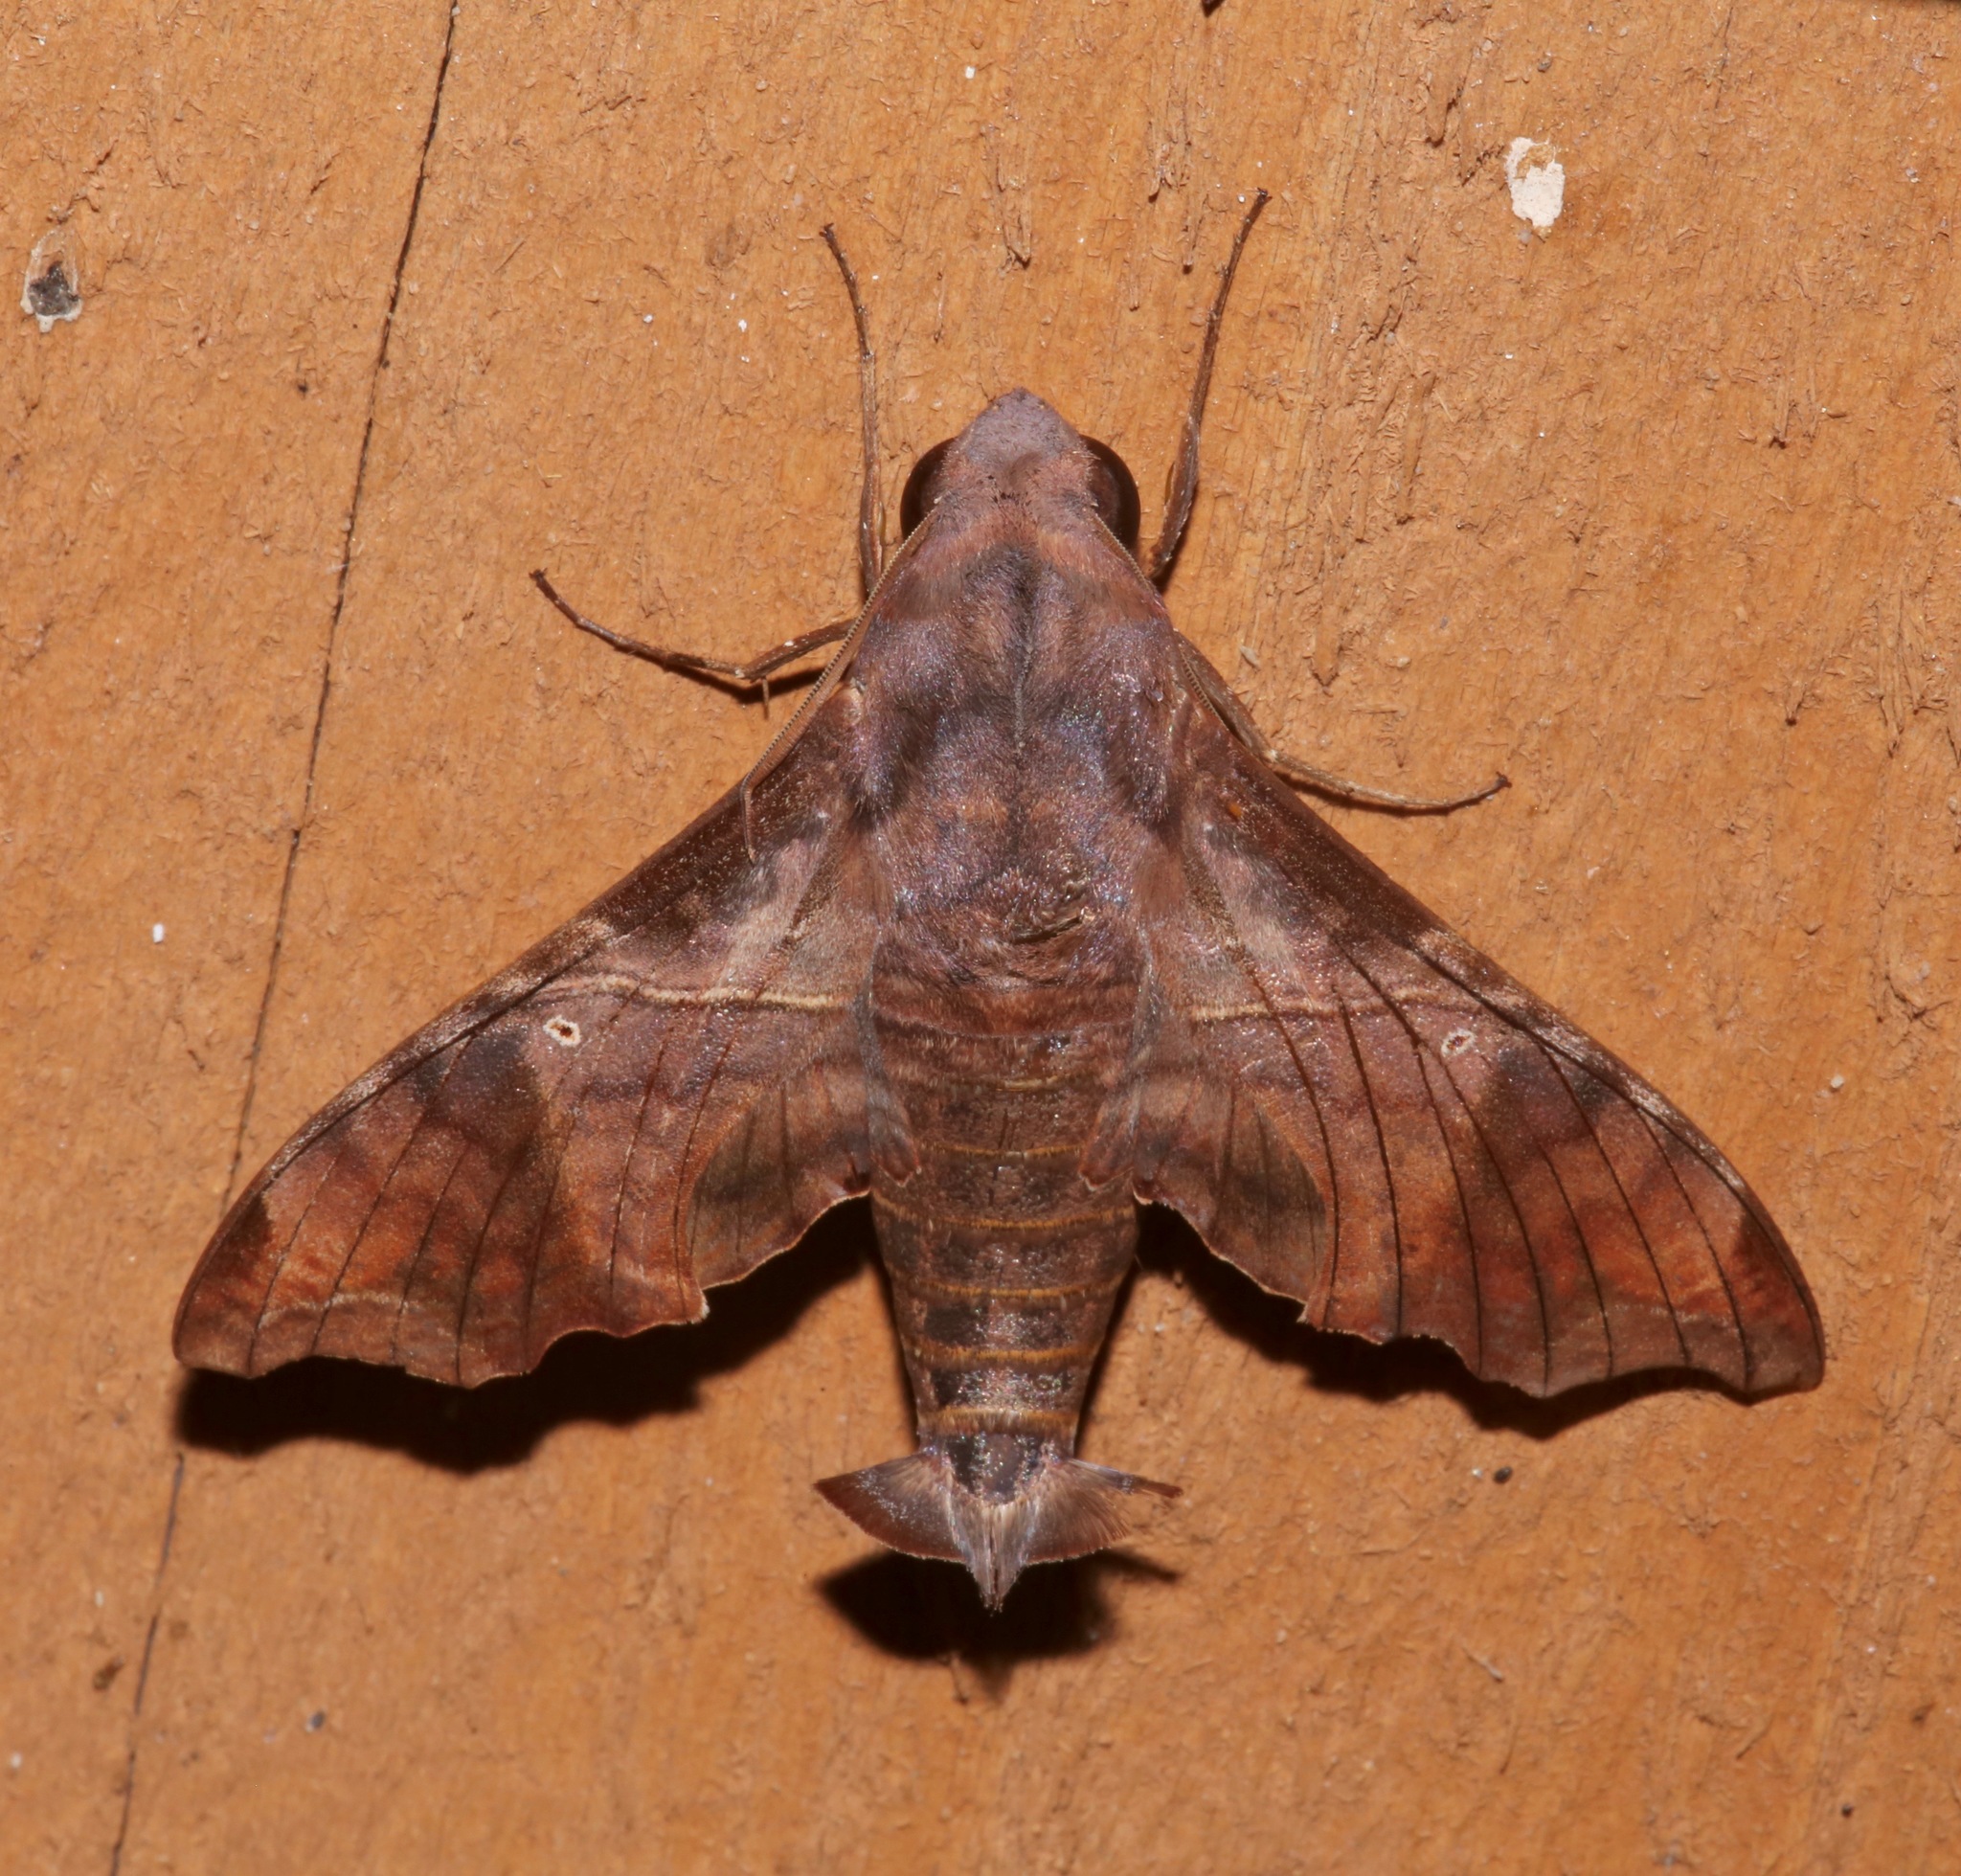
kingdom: Animalia
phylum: Arthropoda
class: Insecta
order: Lepidoptera
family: Sphingidae
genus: Enyo
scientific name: Enyo lugubris
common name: Mournful sphinx
